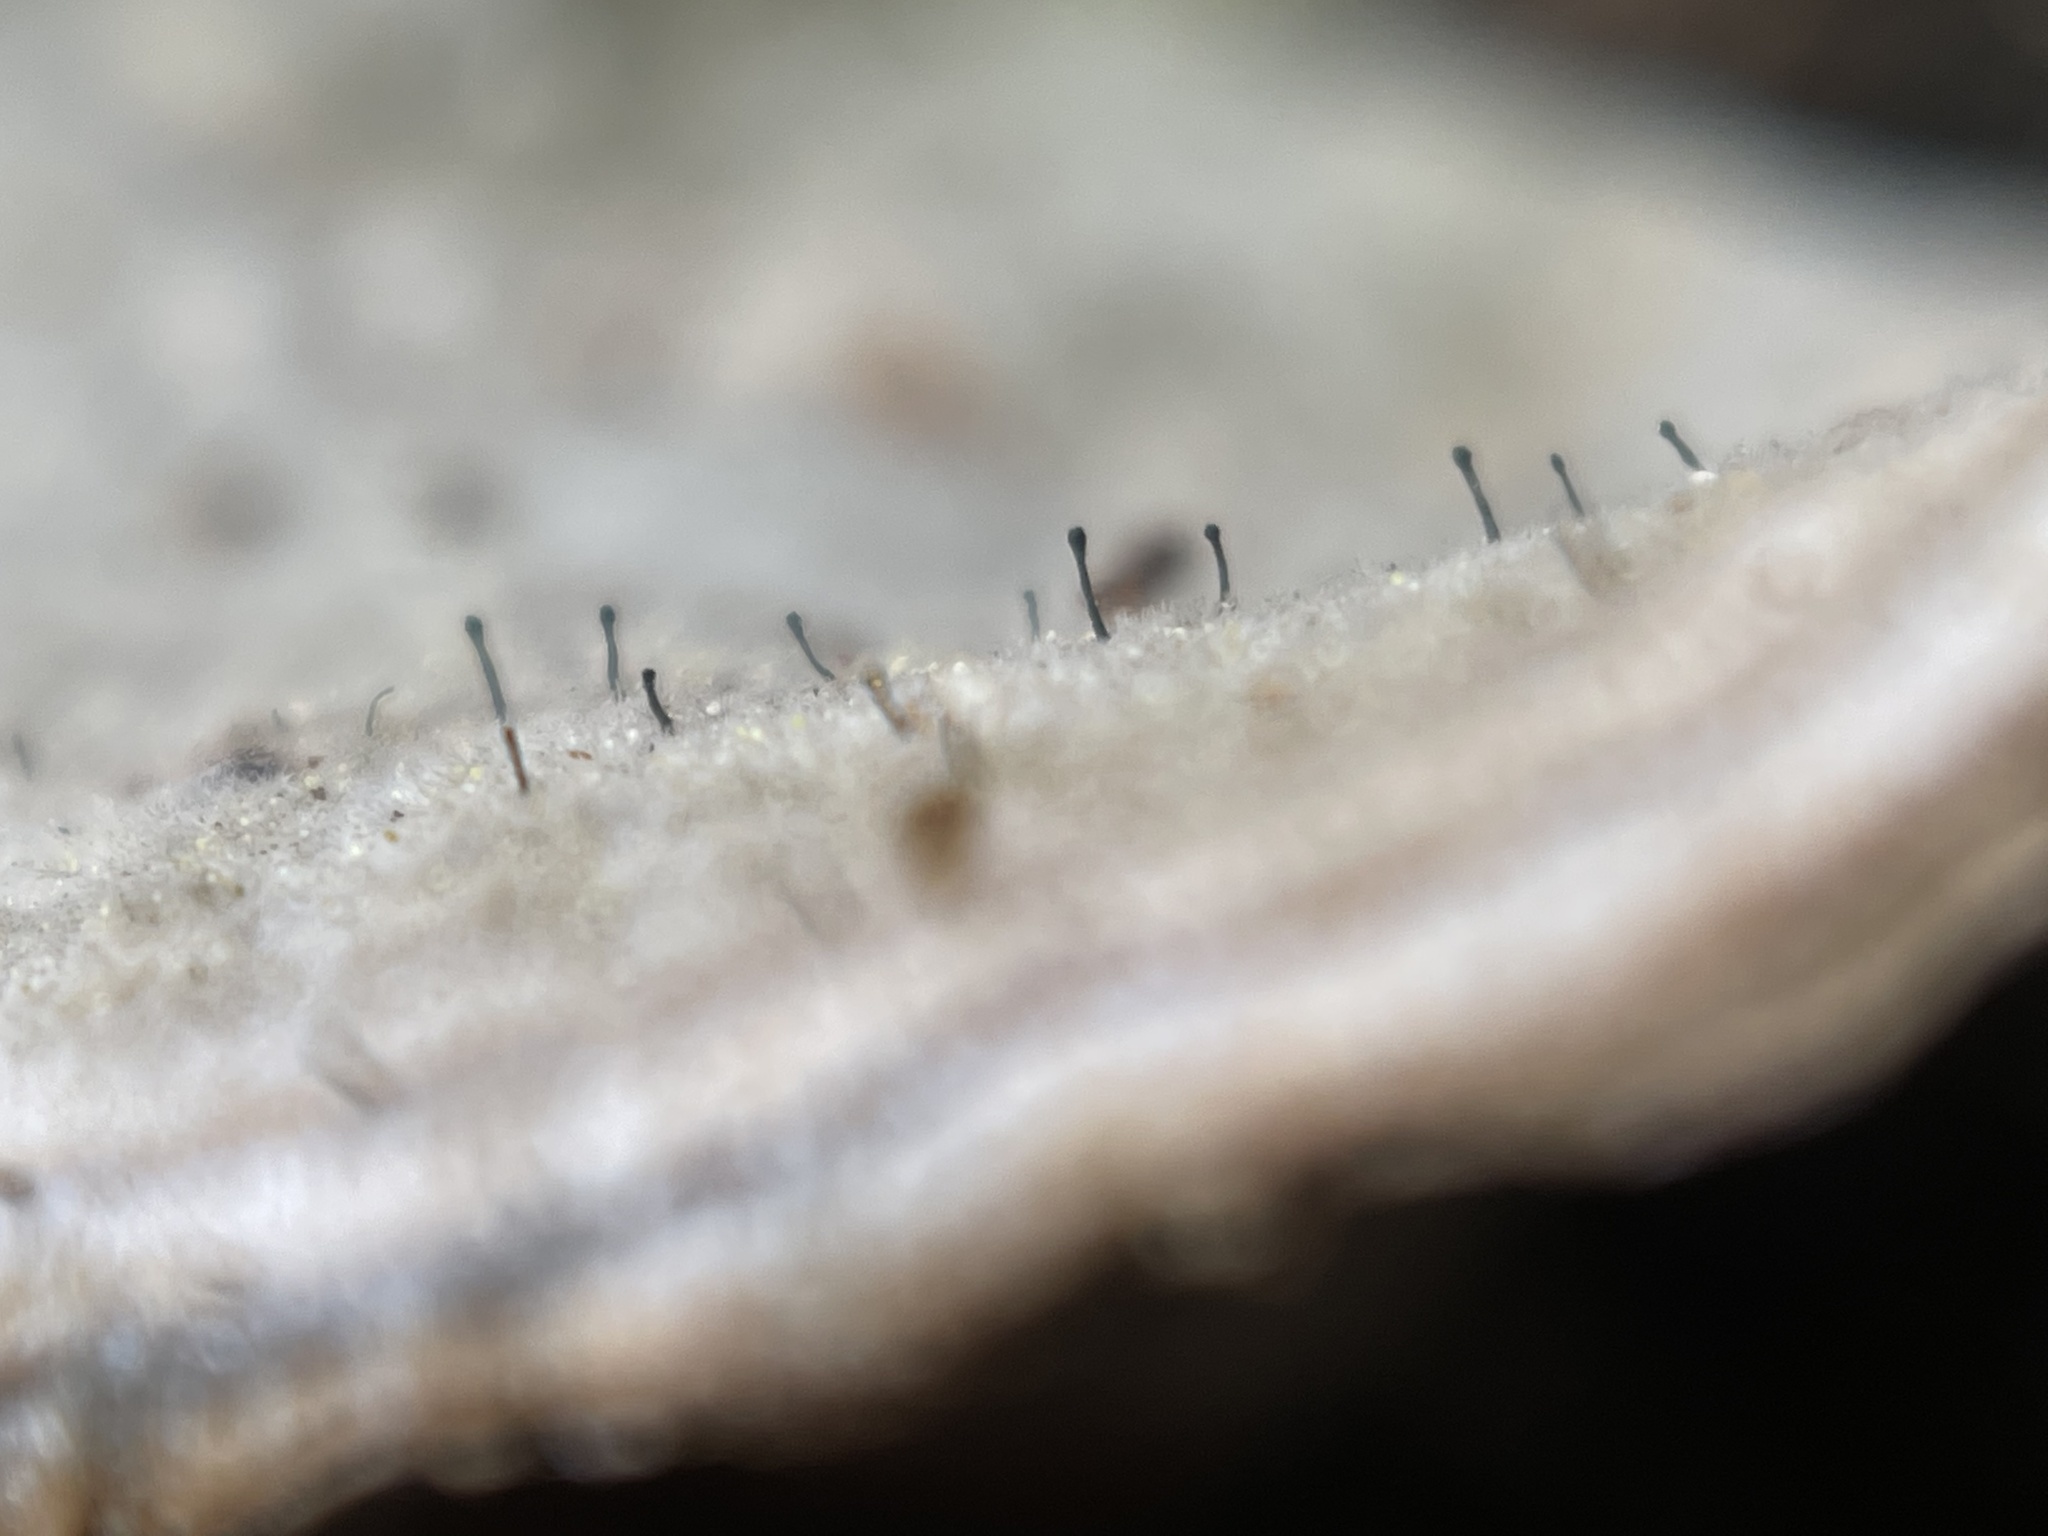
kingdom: Fungi
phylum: Ascomycota
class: Eurotiomycetes
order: Mycocaliciales
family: Mycocaliciaceae
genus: Phaeocalicium
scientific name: Phaeocalicium polyporaeum
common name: Fairy pins
